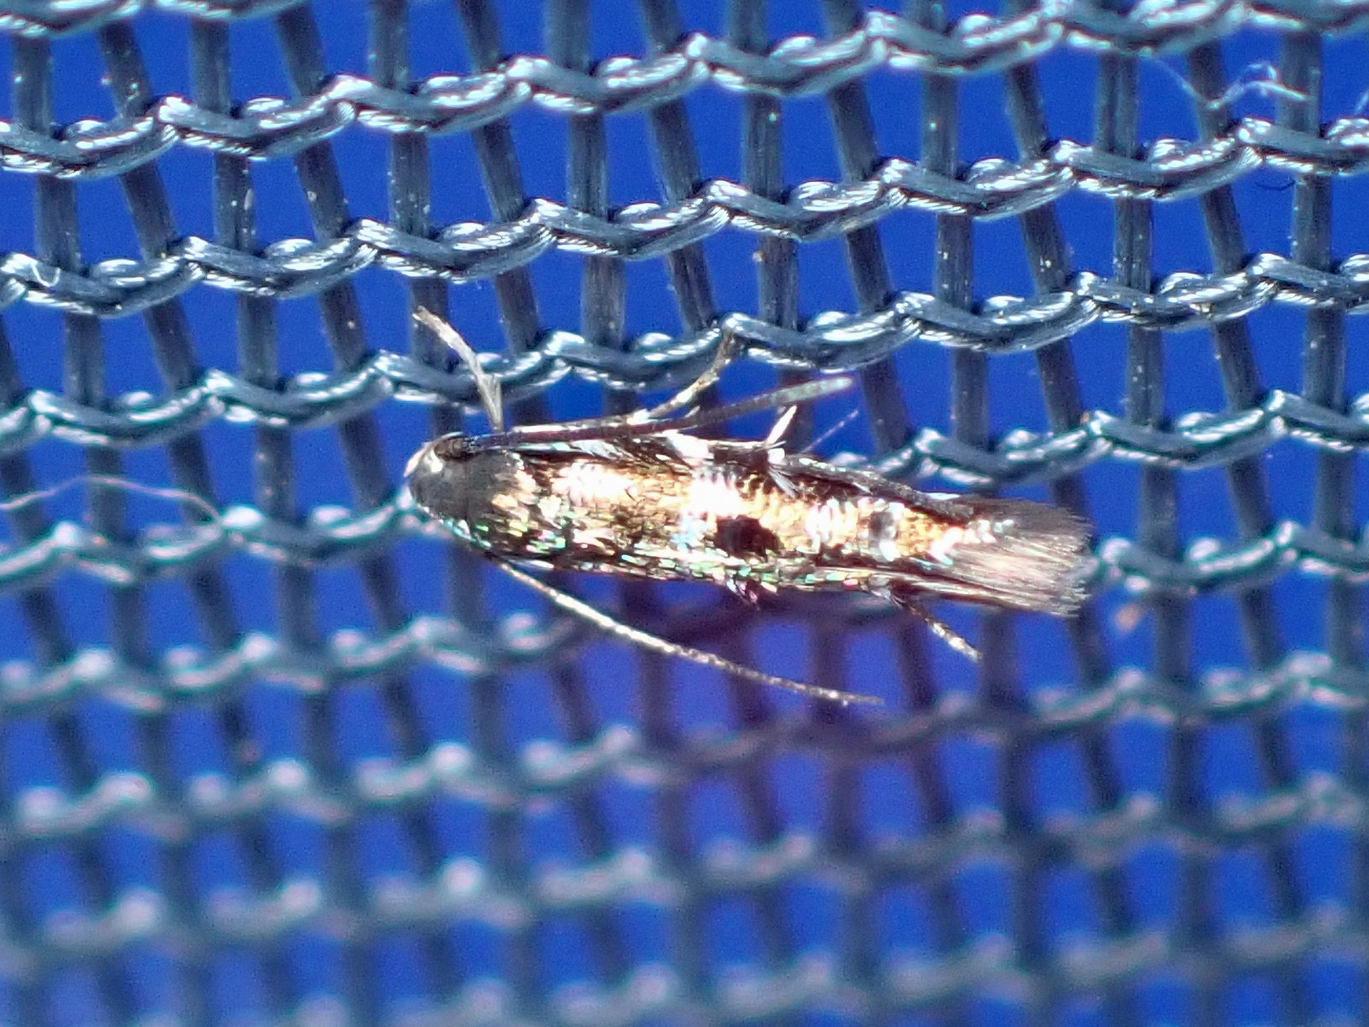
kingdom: Animalia
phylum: Arthropoda
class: Insecta
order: Lepidoptera
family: Momphidae
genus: Zapyrastra
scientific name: Zapyrastra calliphana
